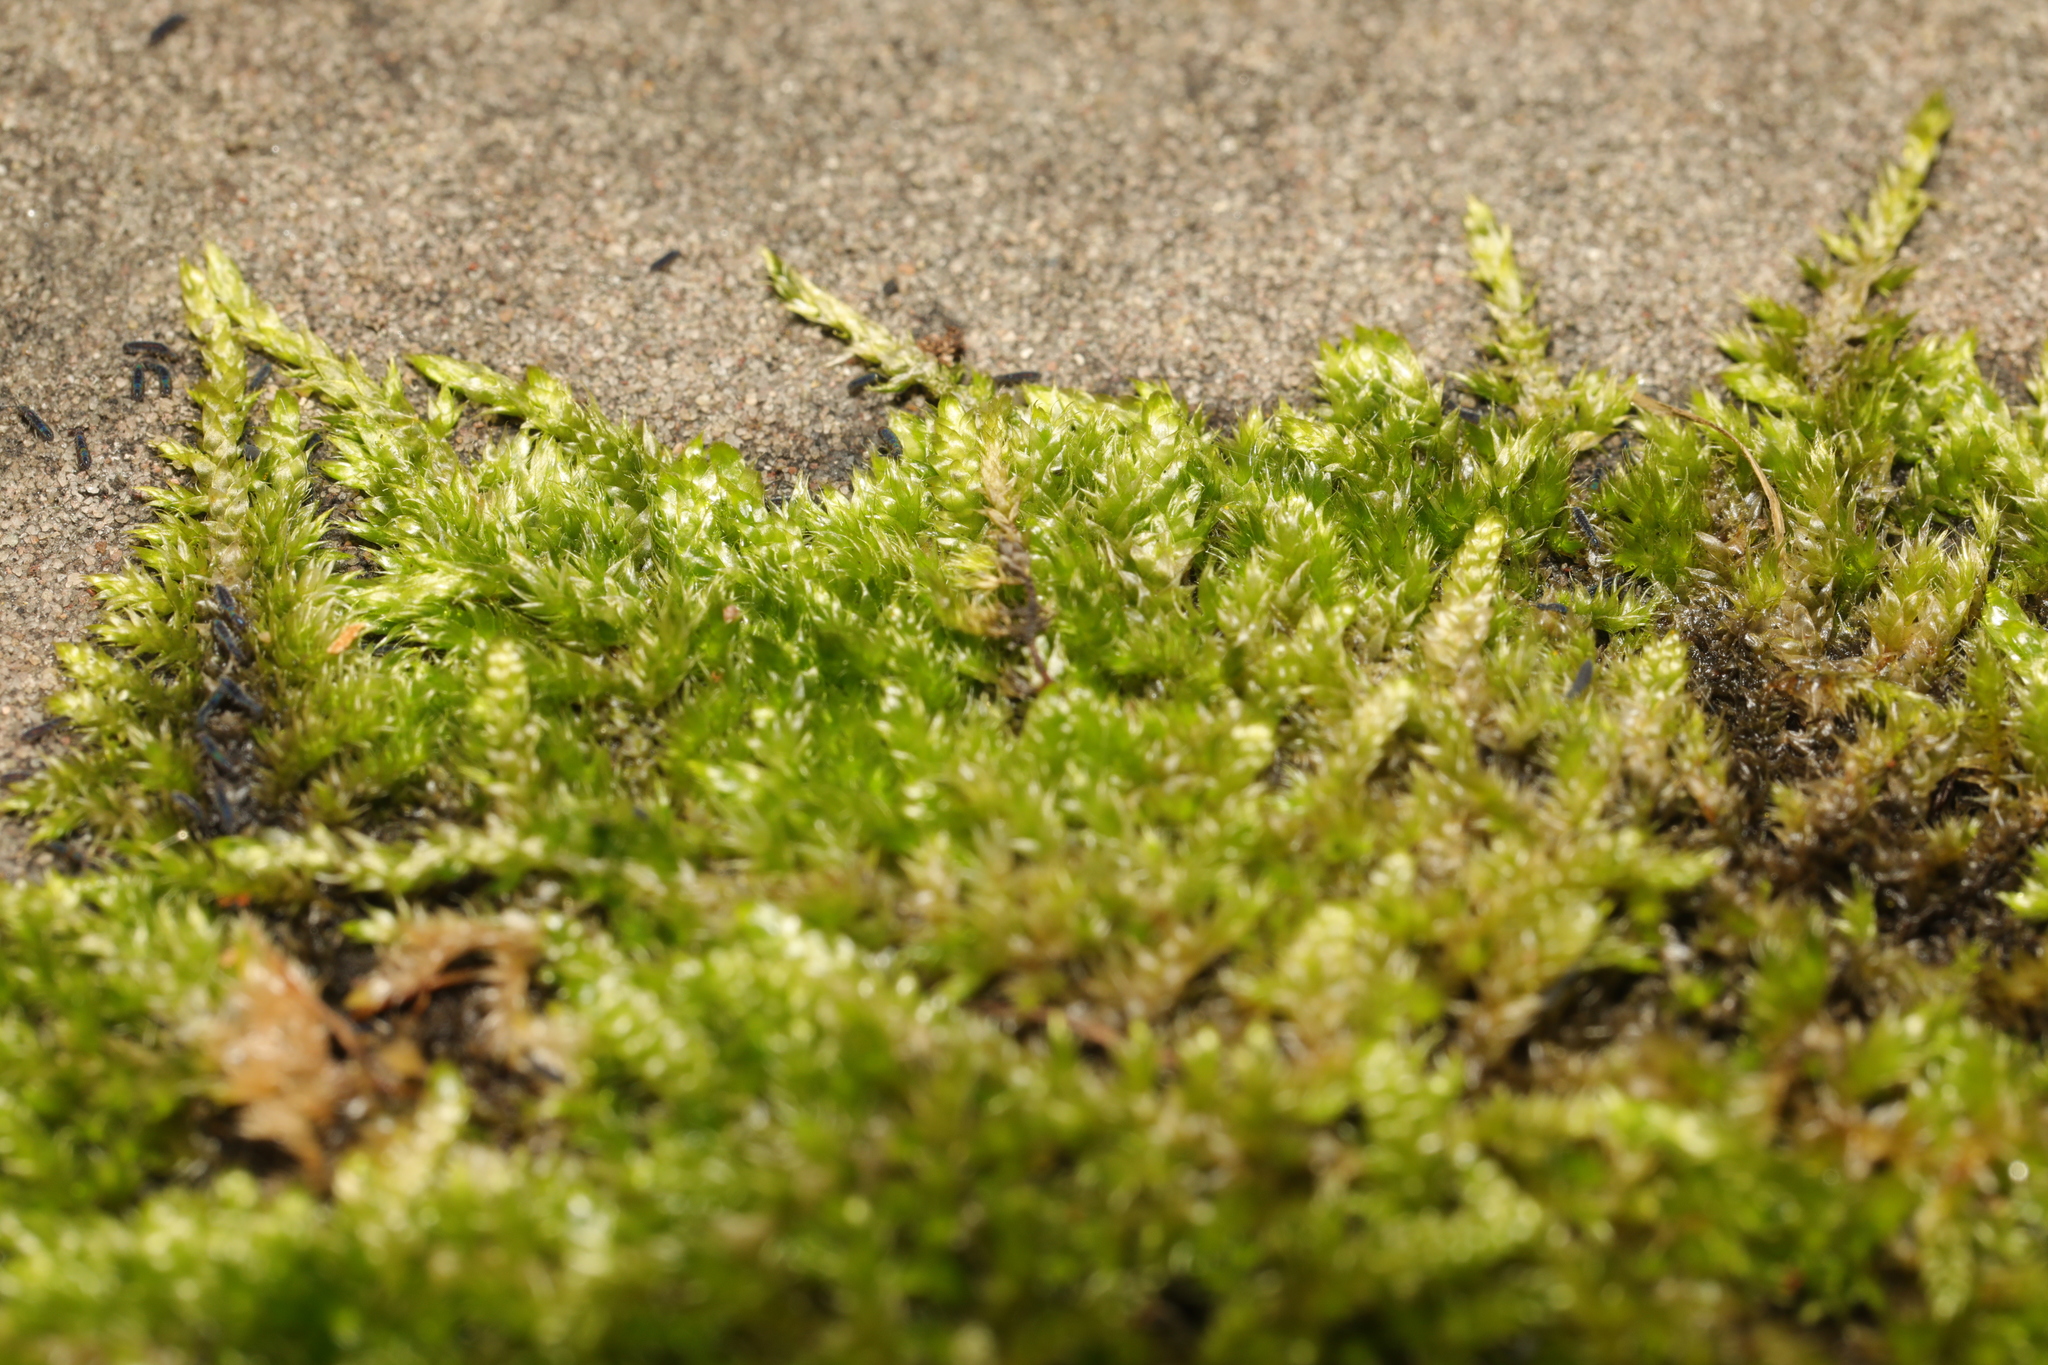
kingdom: Plantae
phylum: Bryophyta
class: Bryopsida
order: Hypnales
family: Hypnaceae
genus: Hypnum
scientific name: Hypnum cupressiforme
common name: Cypress-leaved plait-moss
